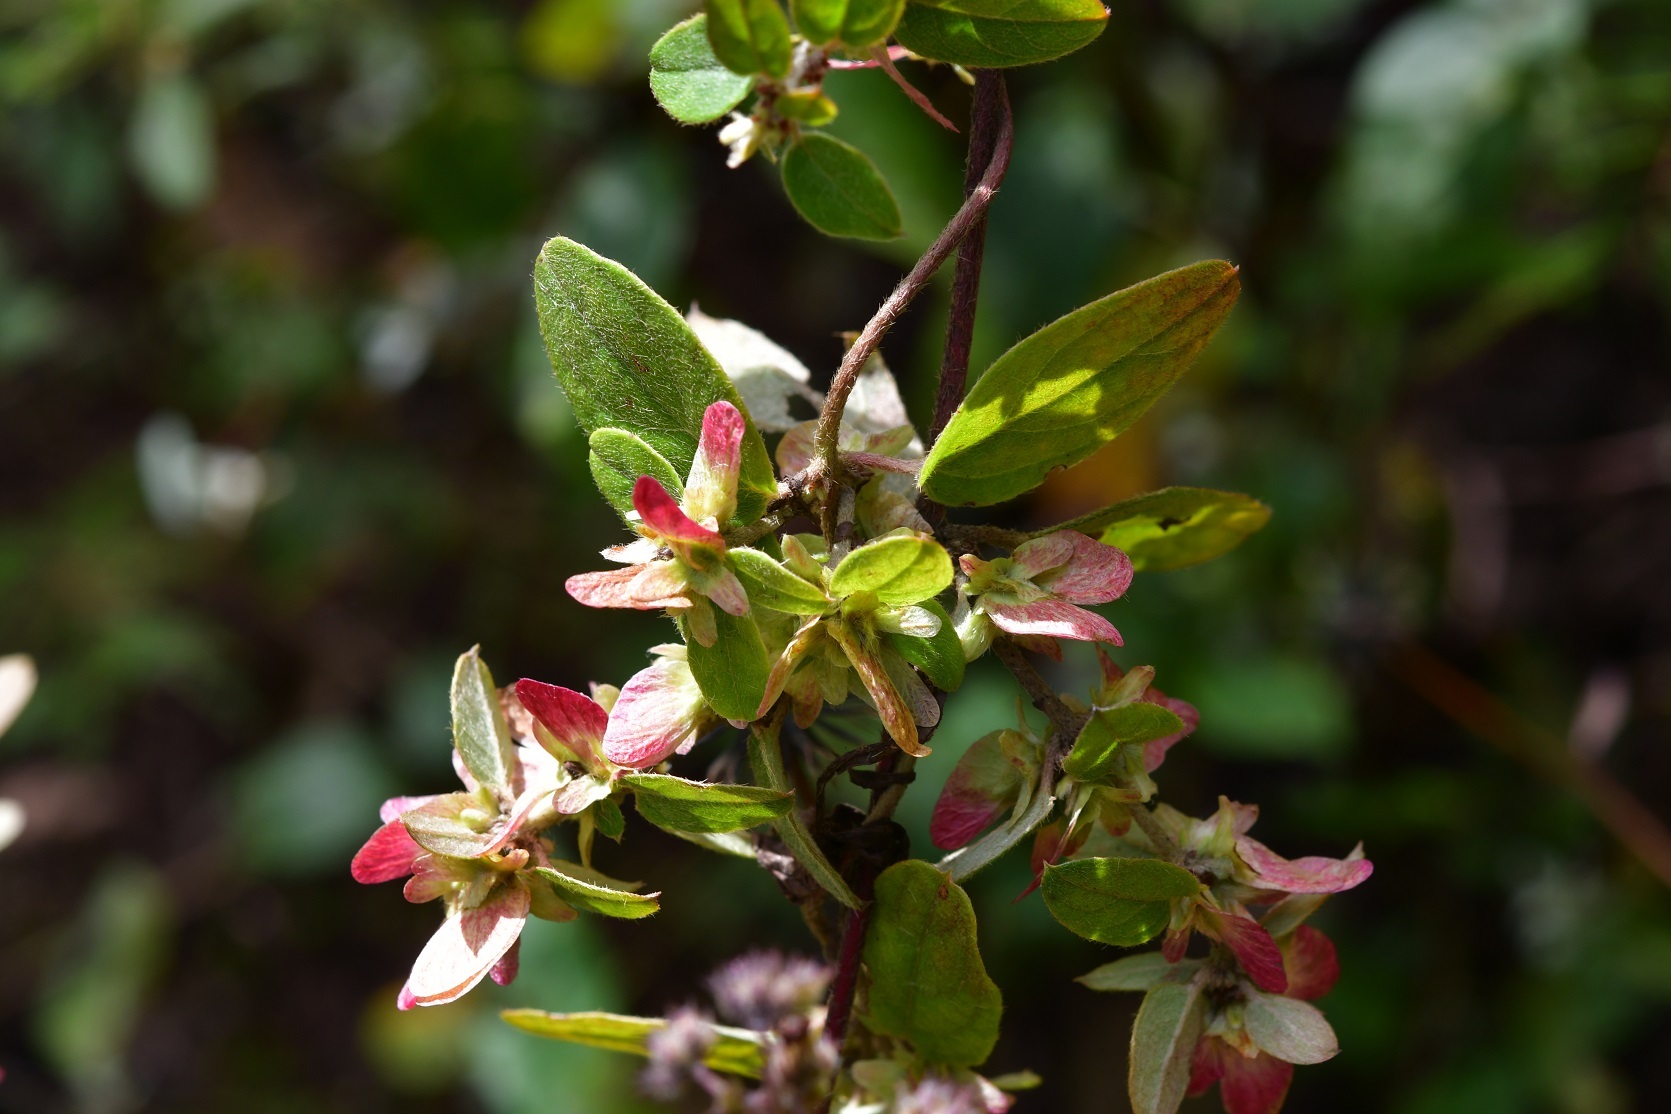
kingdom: Plantae
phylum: Tracheophyta
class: Magnoliopsida
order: Malpighiales
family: Malpighiaceae
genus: Gaudichaudia
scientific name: Gaudichaudia cynanchoides
